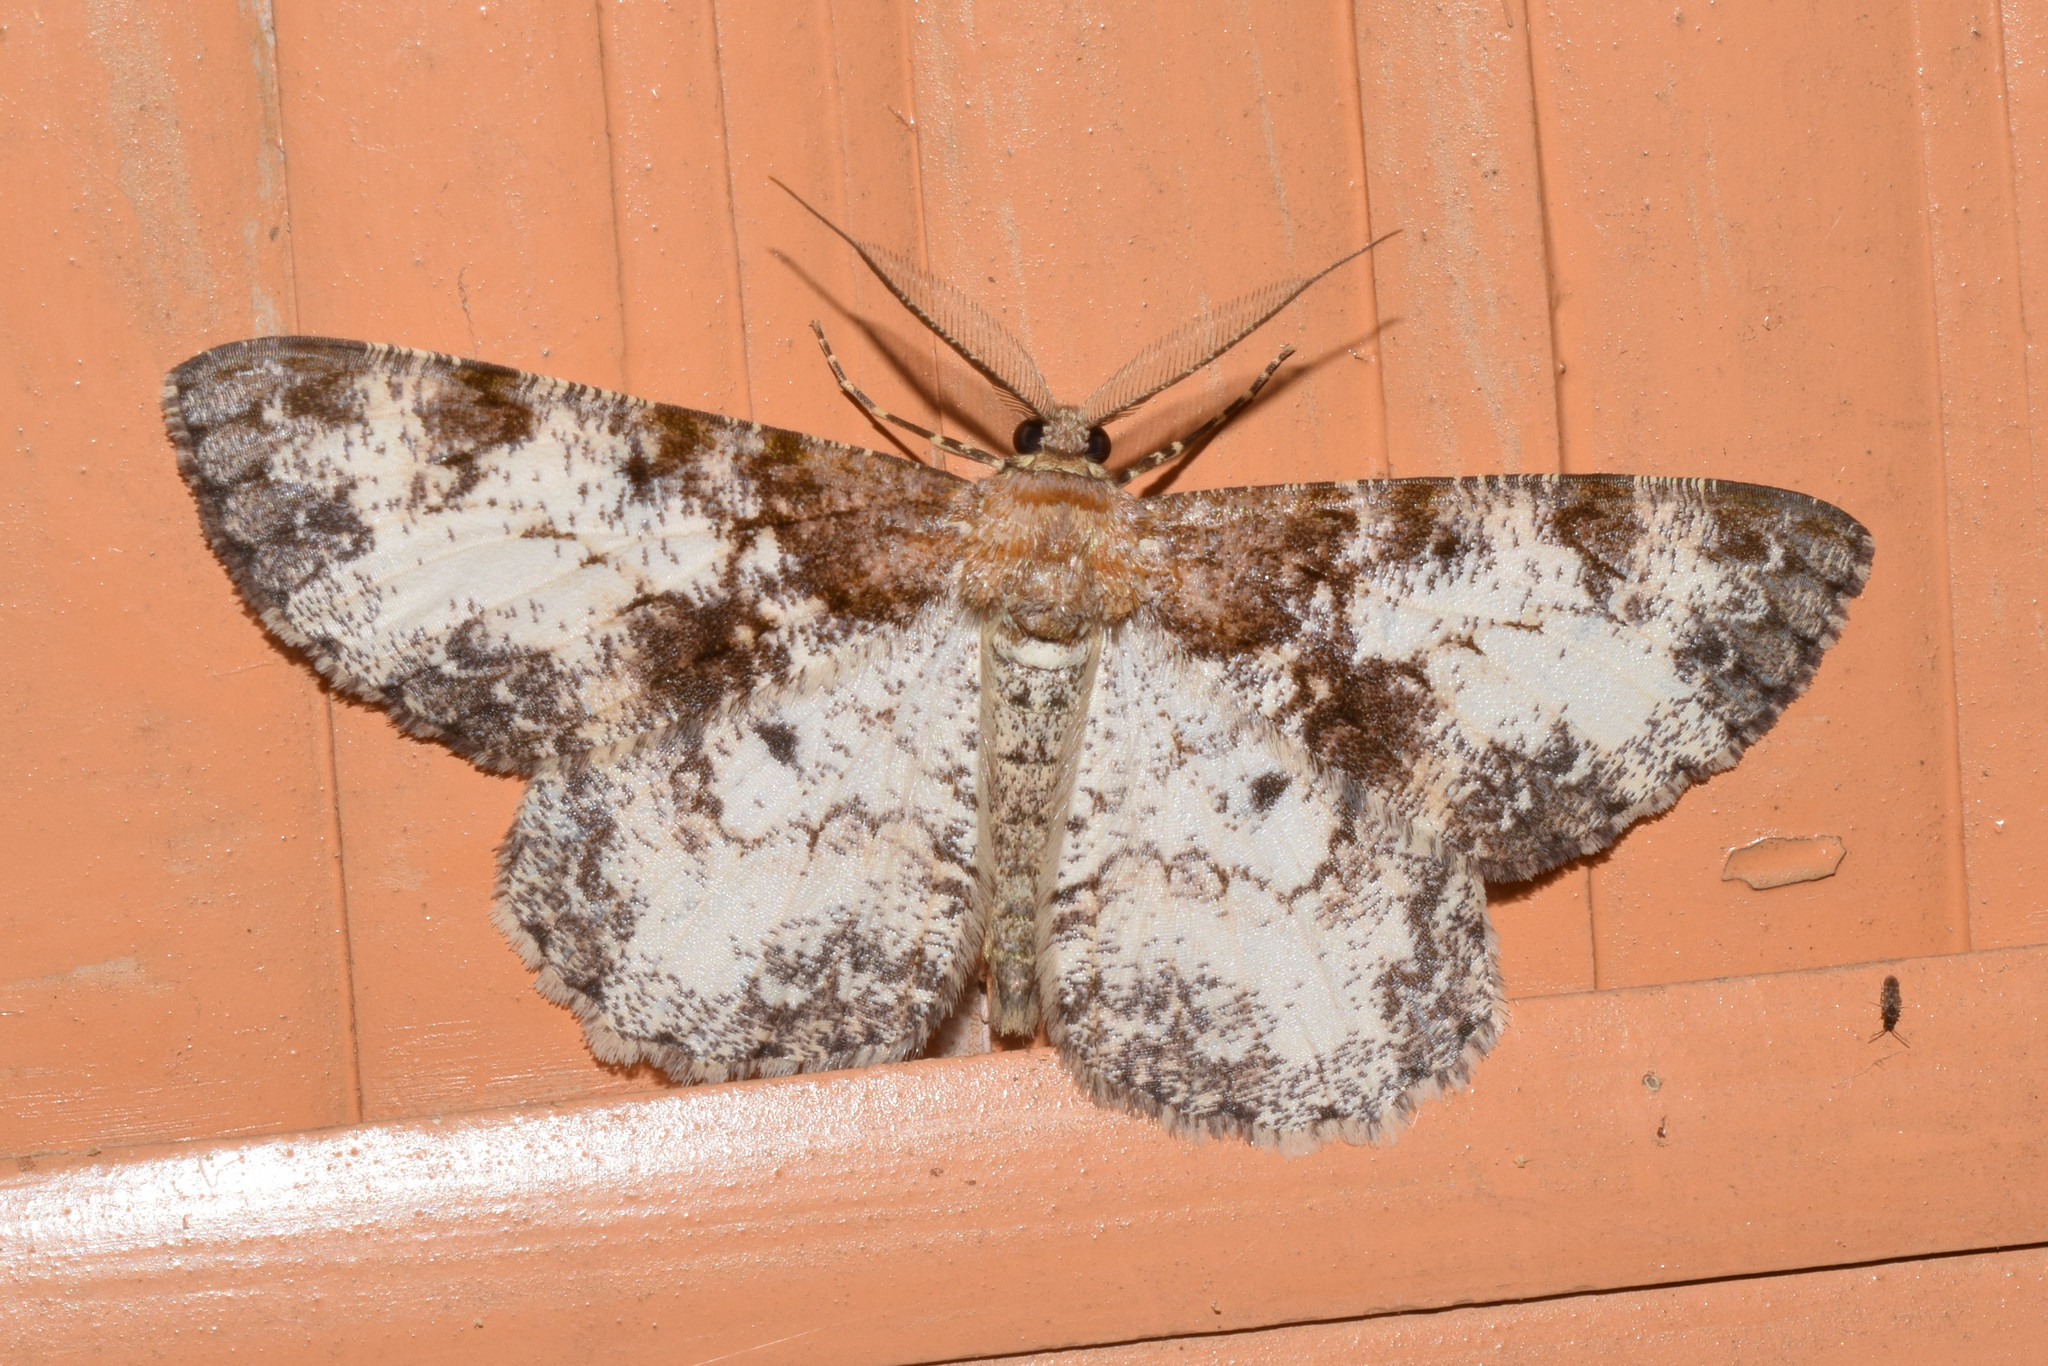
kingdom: Animalia
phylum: Arthropoda
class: Insecta
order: Lepidoptera
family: Geometridae
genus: Hypomecis
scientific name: Hypomecis oblivia
